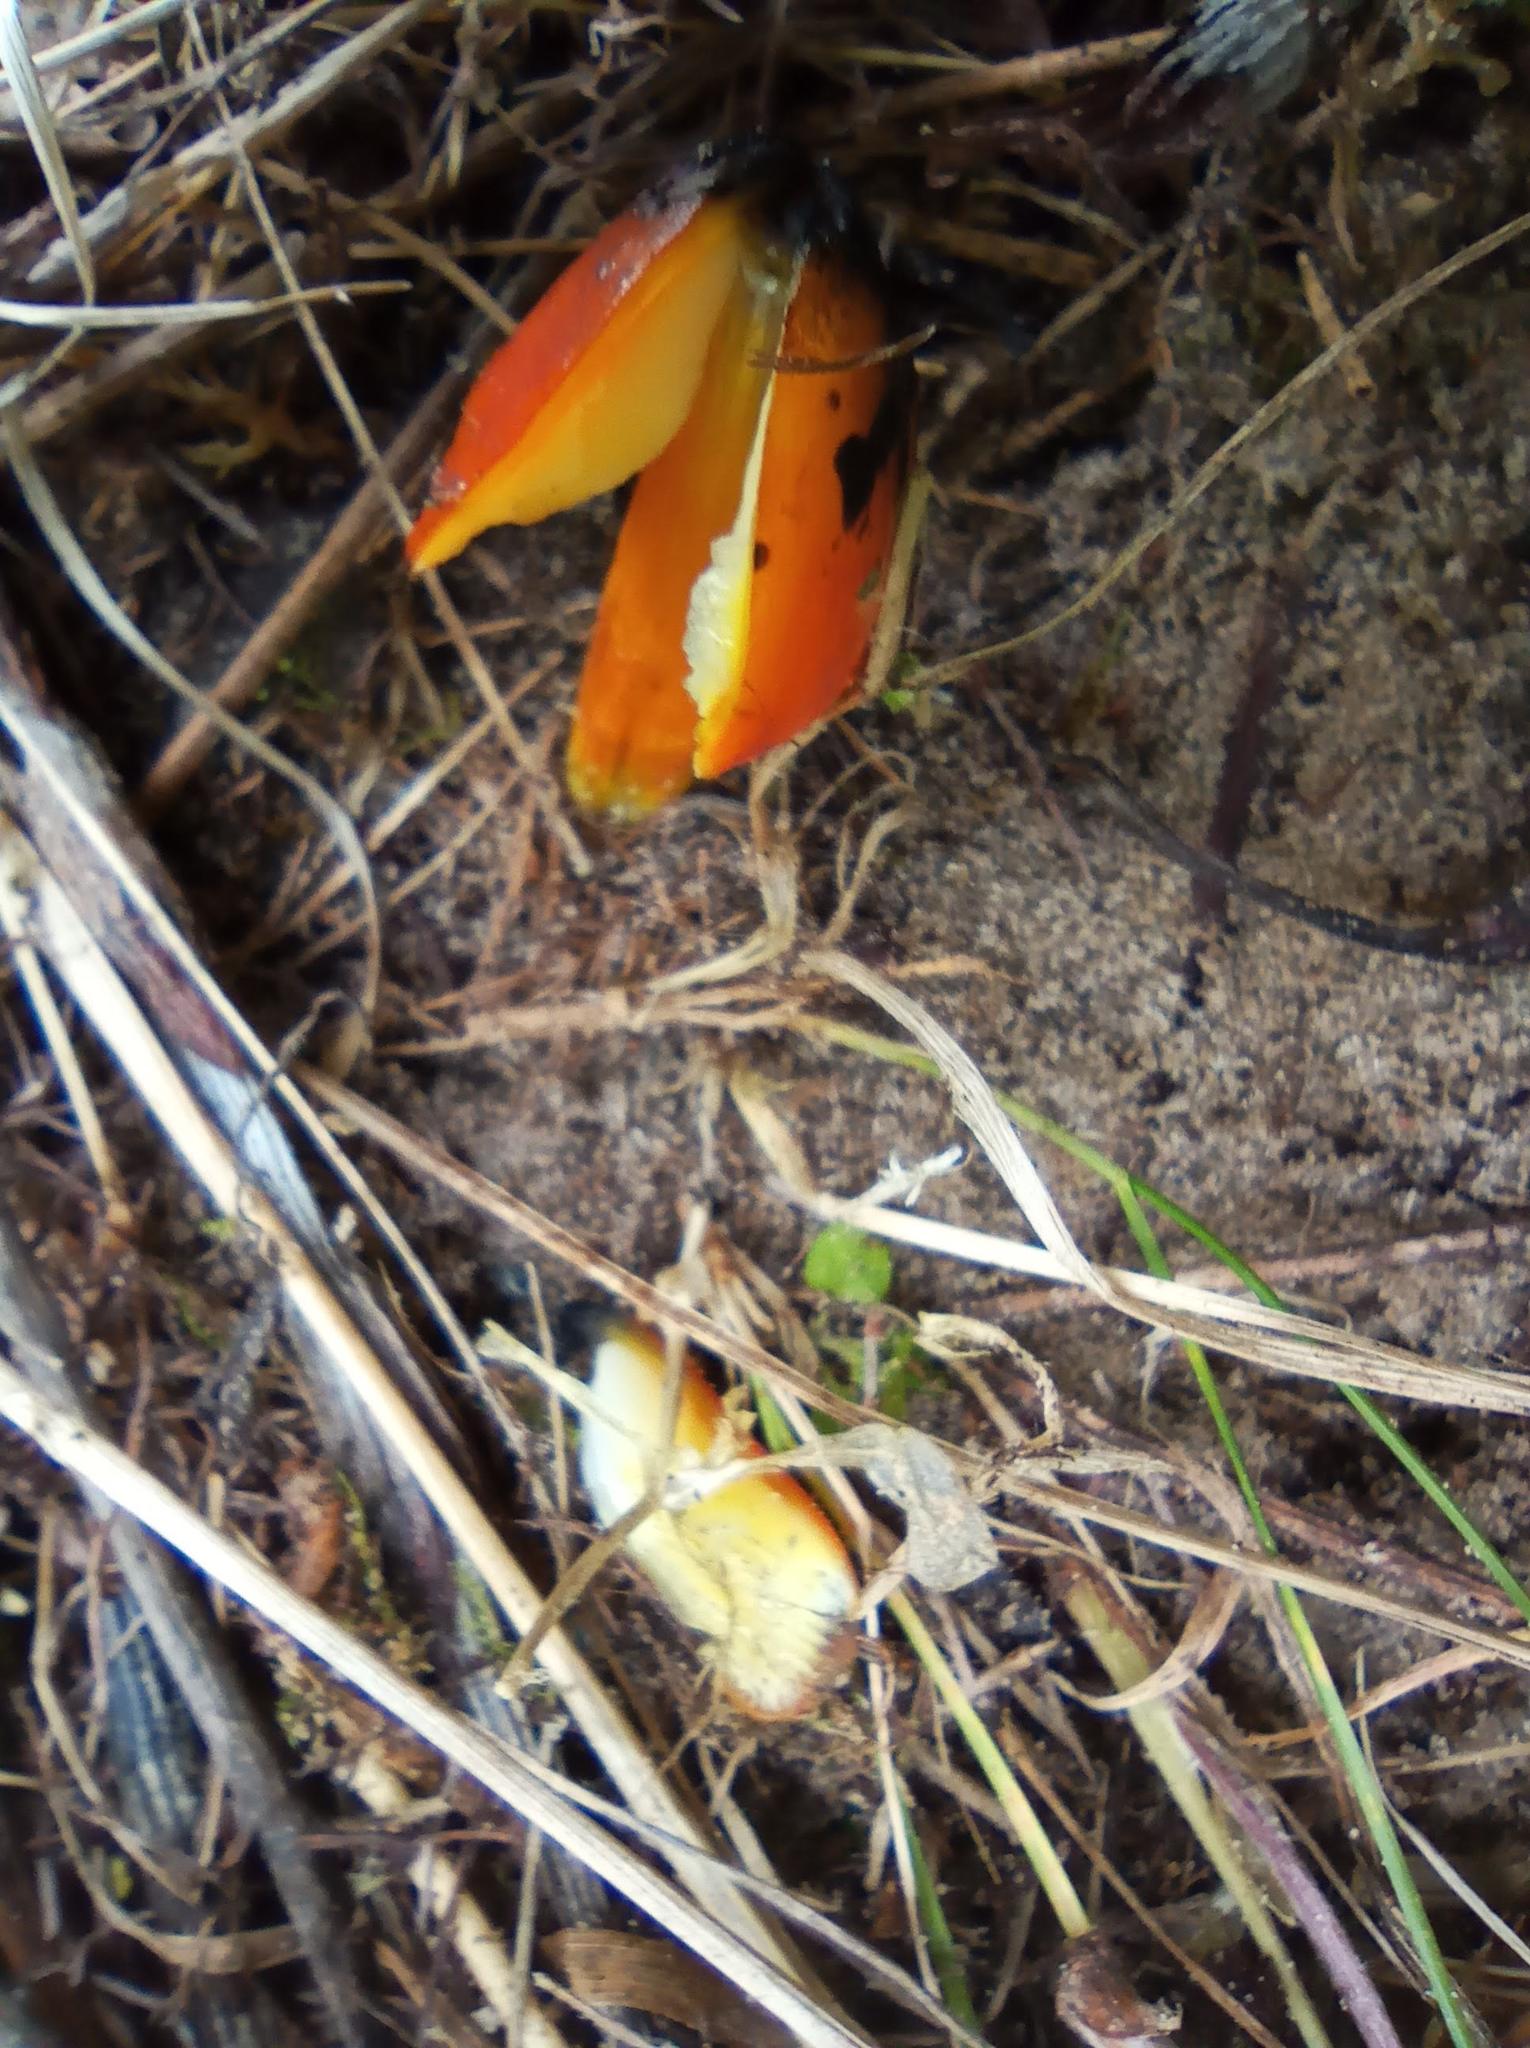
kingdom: Fungi
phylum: Basidiomycota
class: Agaricomycetes
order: Agaricales
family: Hygrophoraceae
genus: Hygrocybe
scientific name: Hygrocybe conica
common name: Blackening wax-cap
